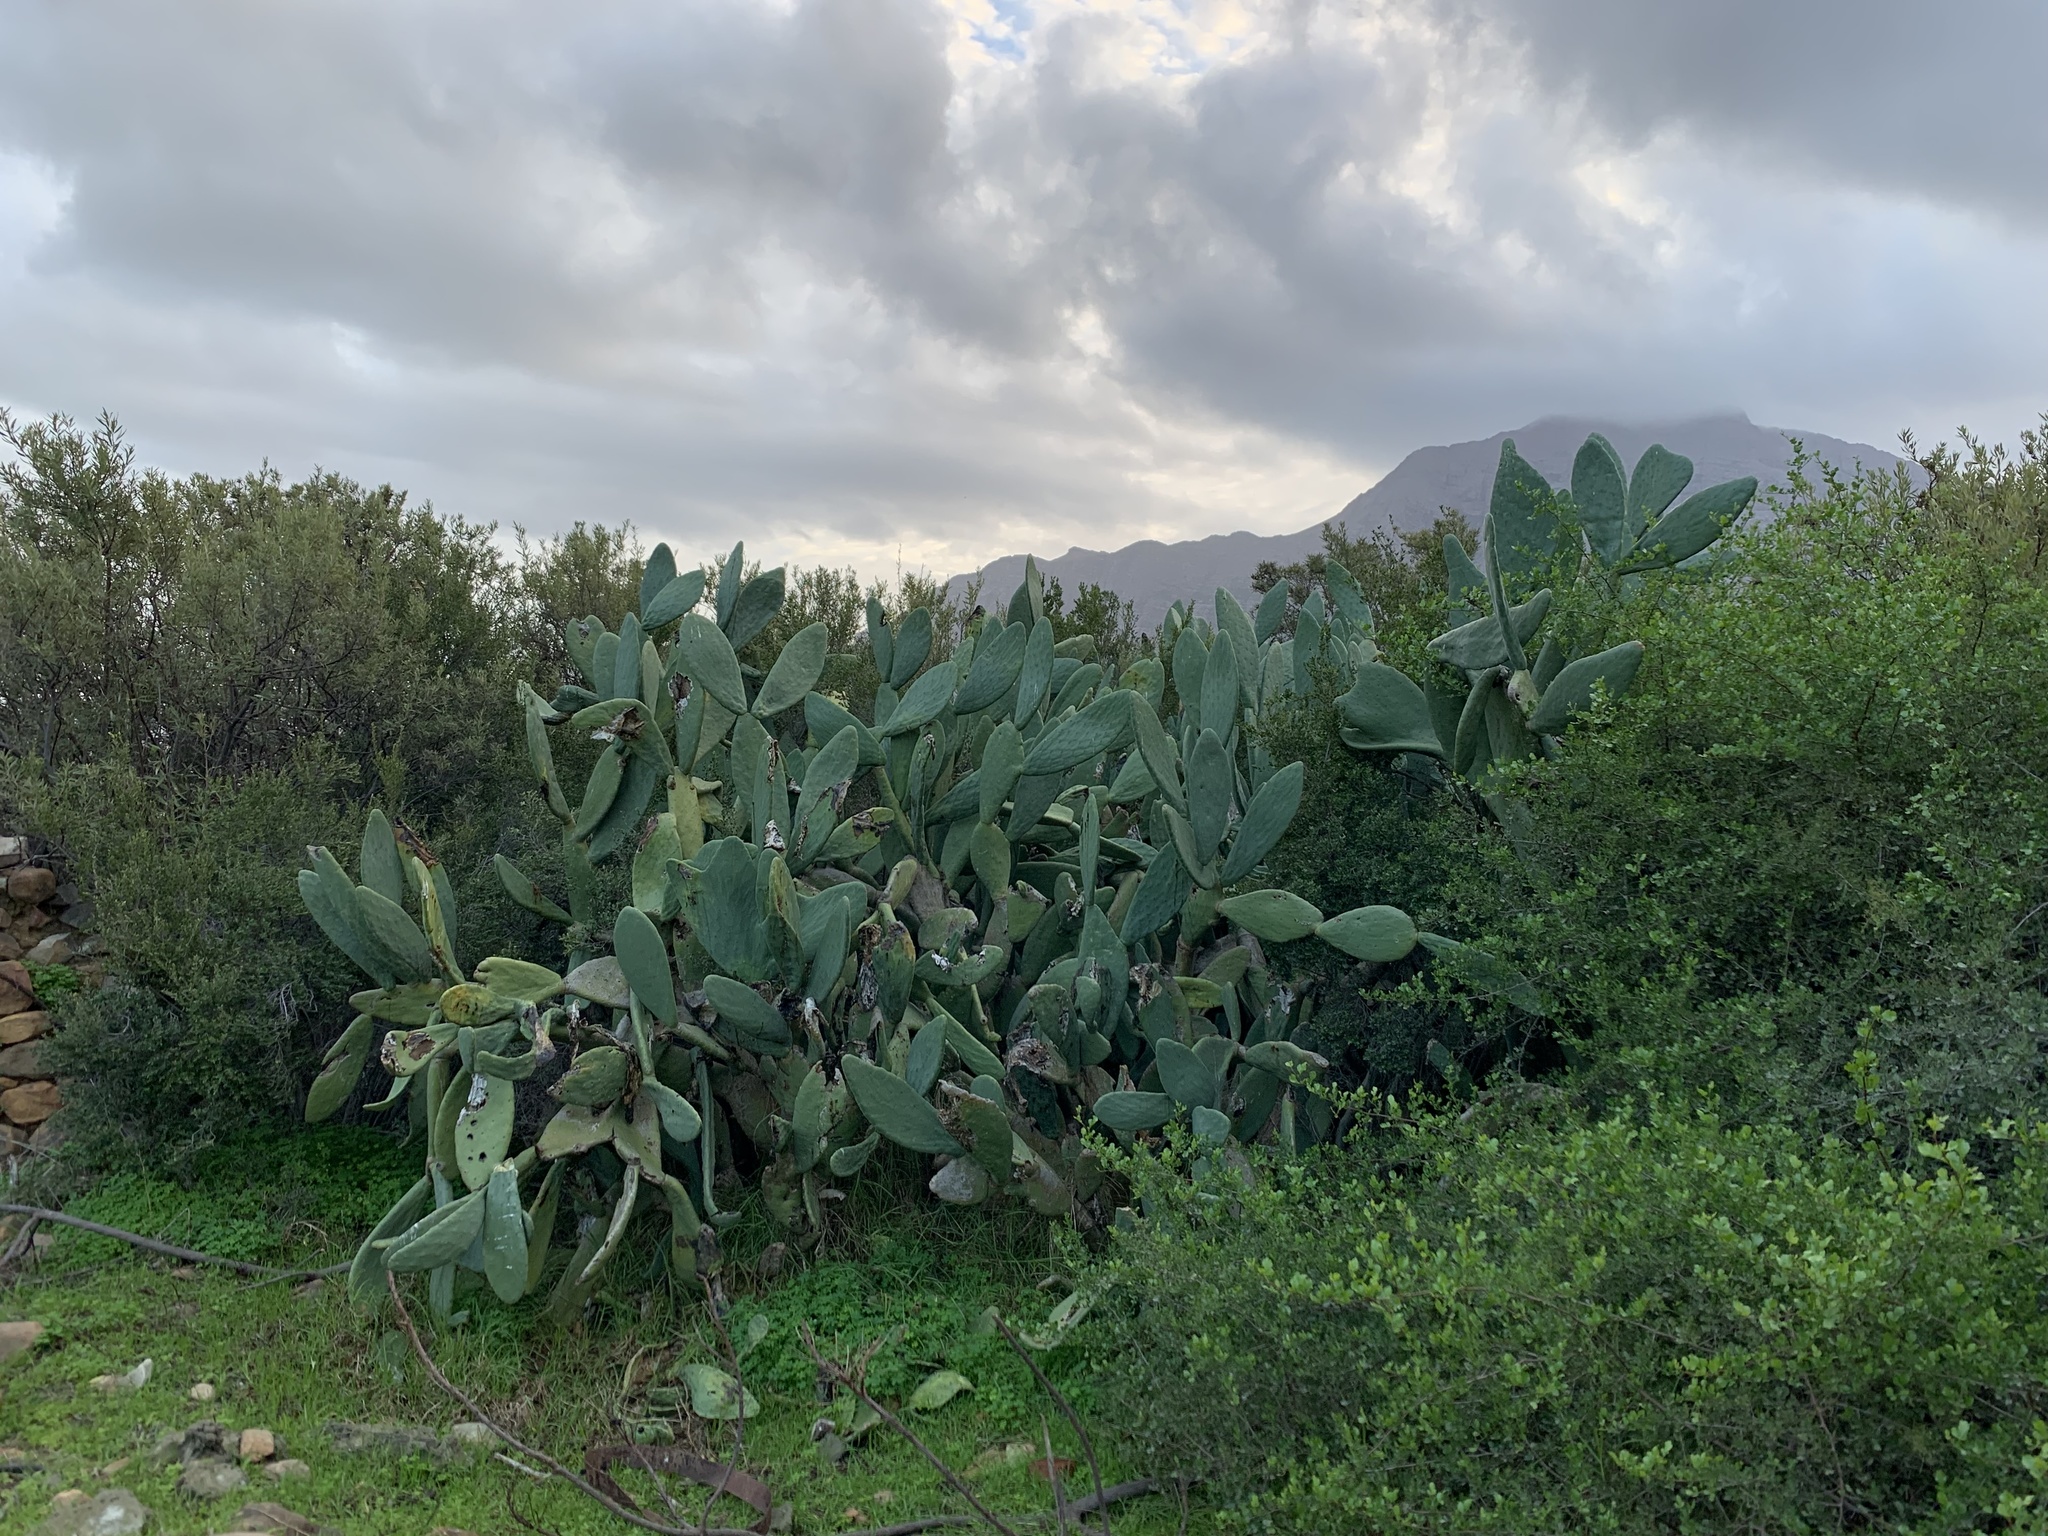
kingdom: Plantae
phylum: Tracheophyta
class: Magnoliopsida
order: Caryophyllales
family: Cactaceae
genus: Opuntia
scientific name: Opuntia ficus-indica
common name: Barbary fig
